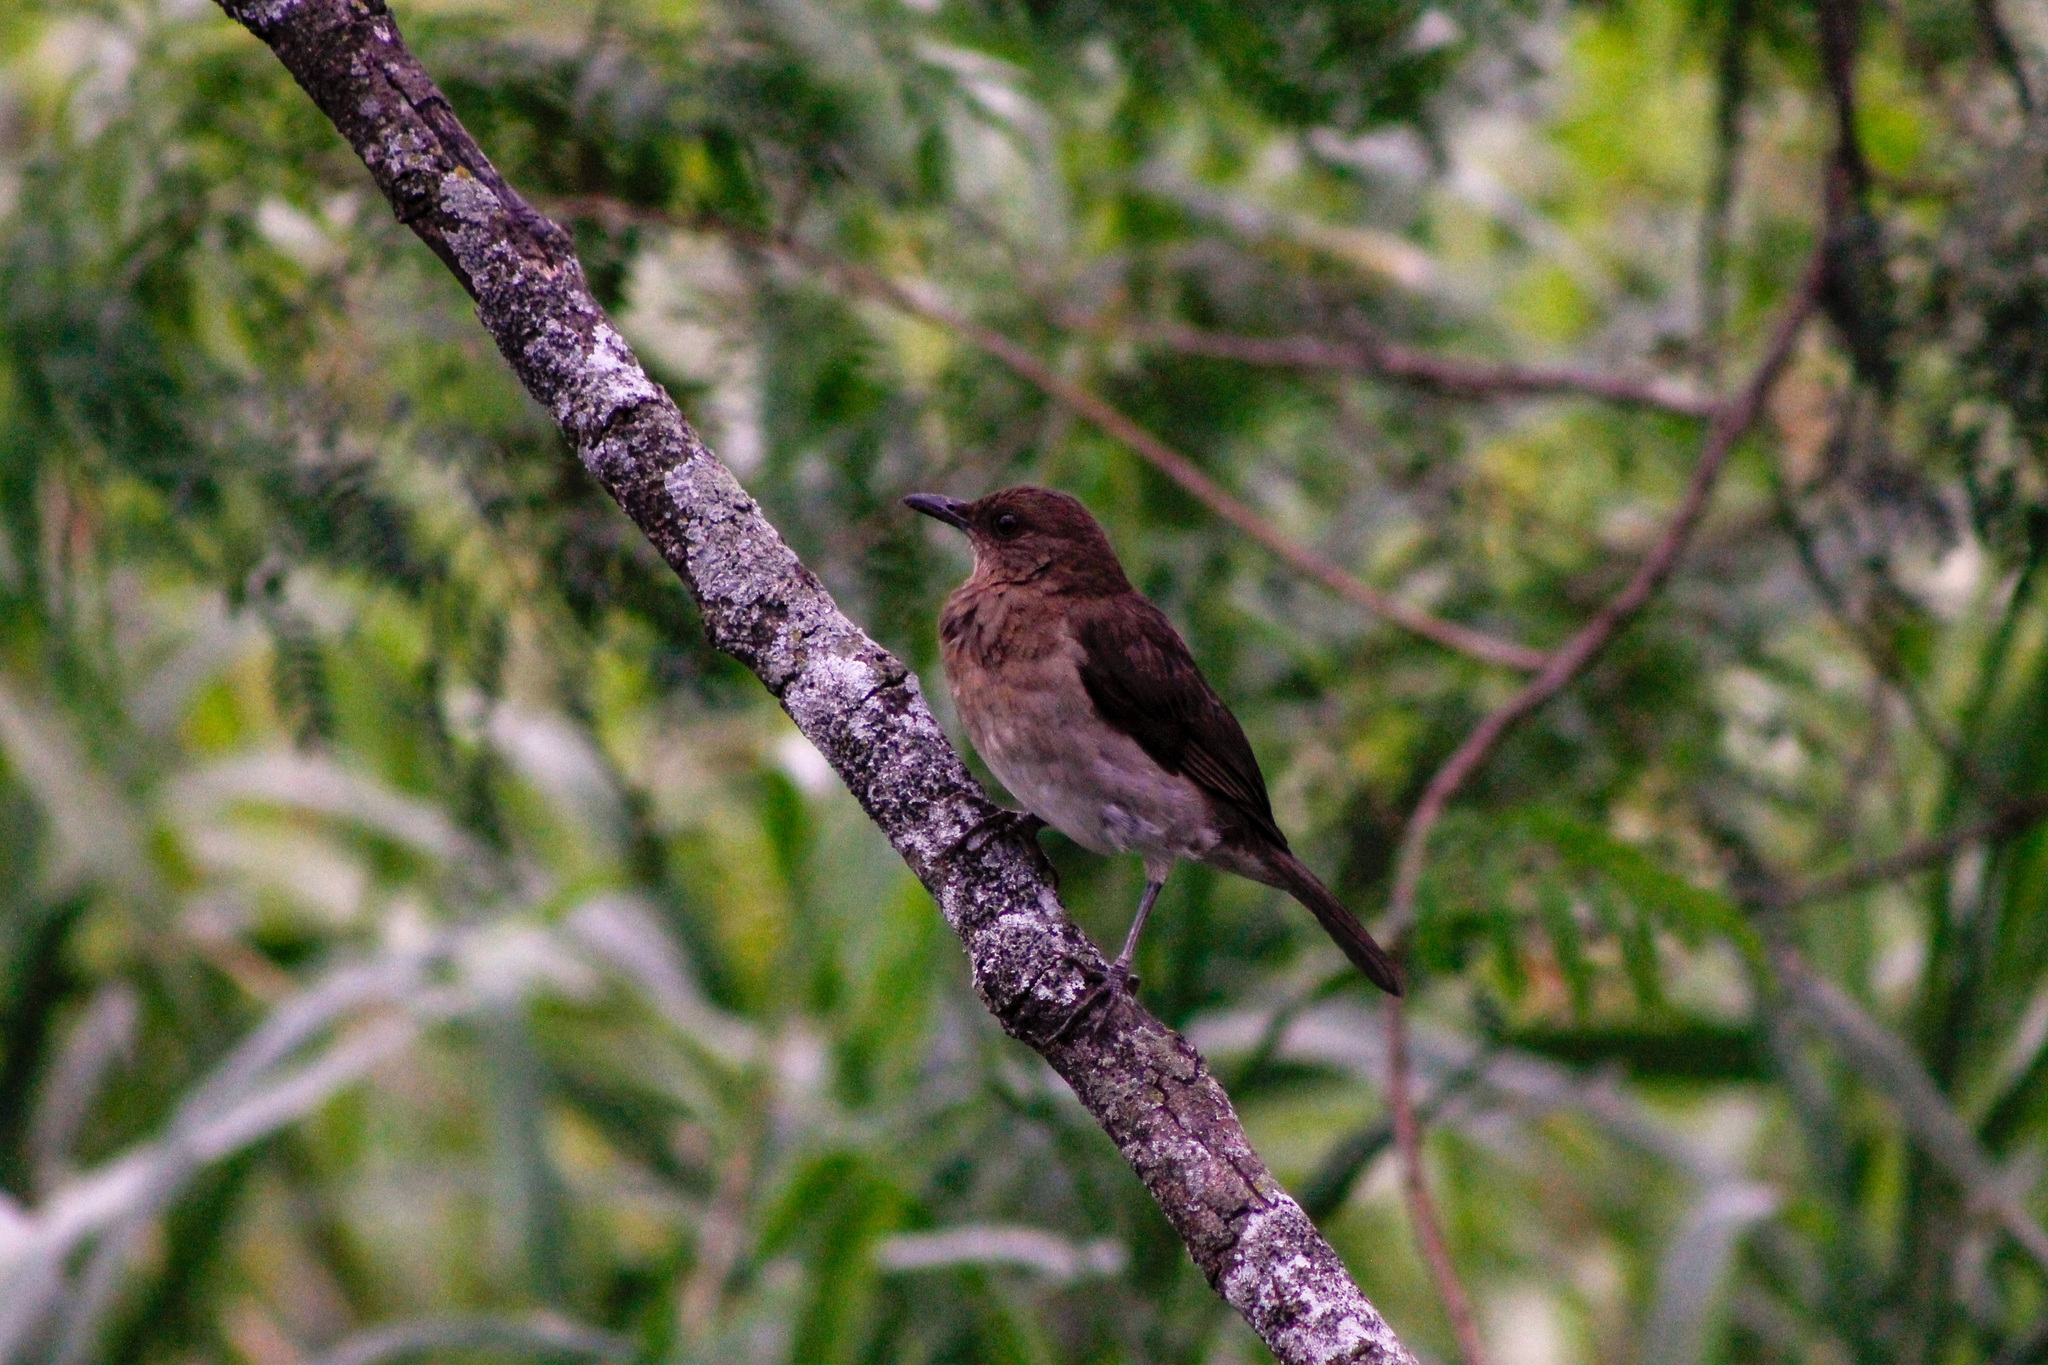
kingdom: Animalia
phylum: Chordata
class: Aves
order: Passeriformes
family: Turdidae
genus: Turdus
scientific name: Turdus ignobilis
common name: Black-billed thrush
